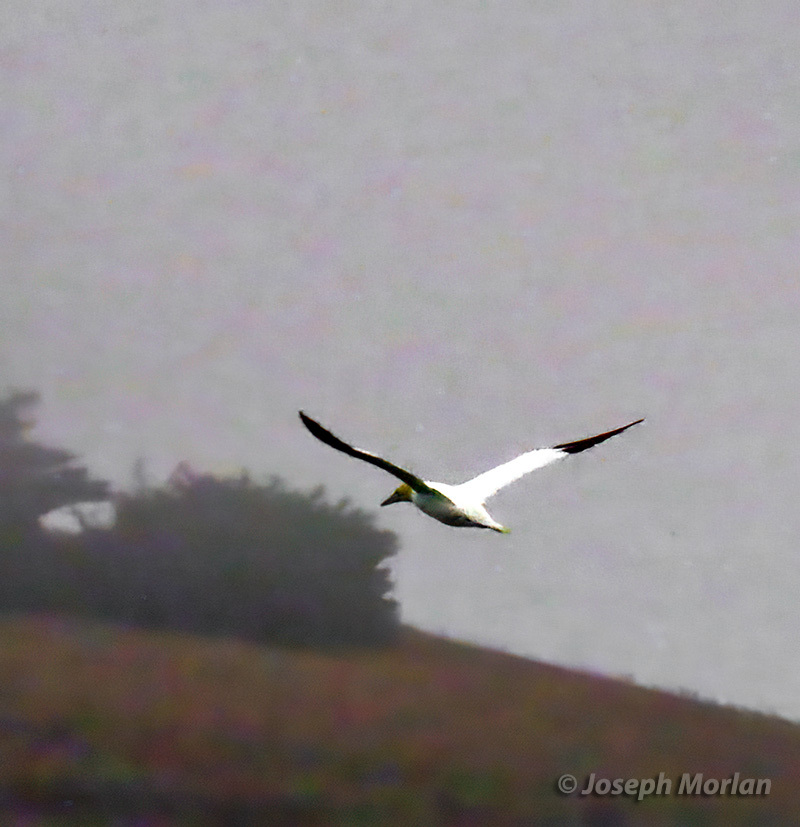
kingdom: Animalia
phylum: Chordata
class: Aves
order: Suliformes
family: Sulidae
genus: Morus
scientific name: Morus bassanus
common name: Northern gannet
